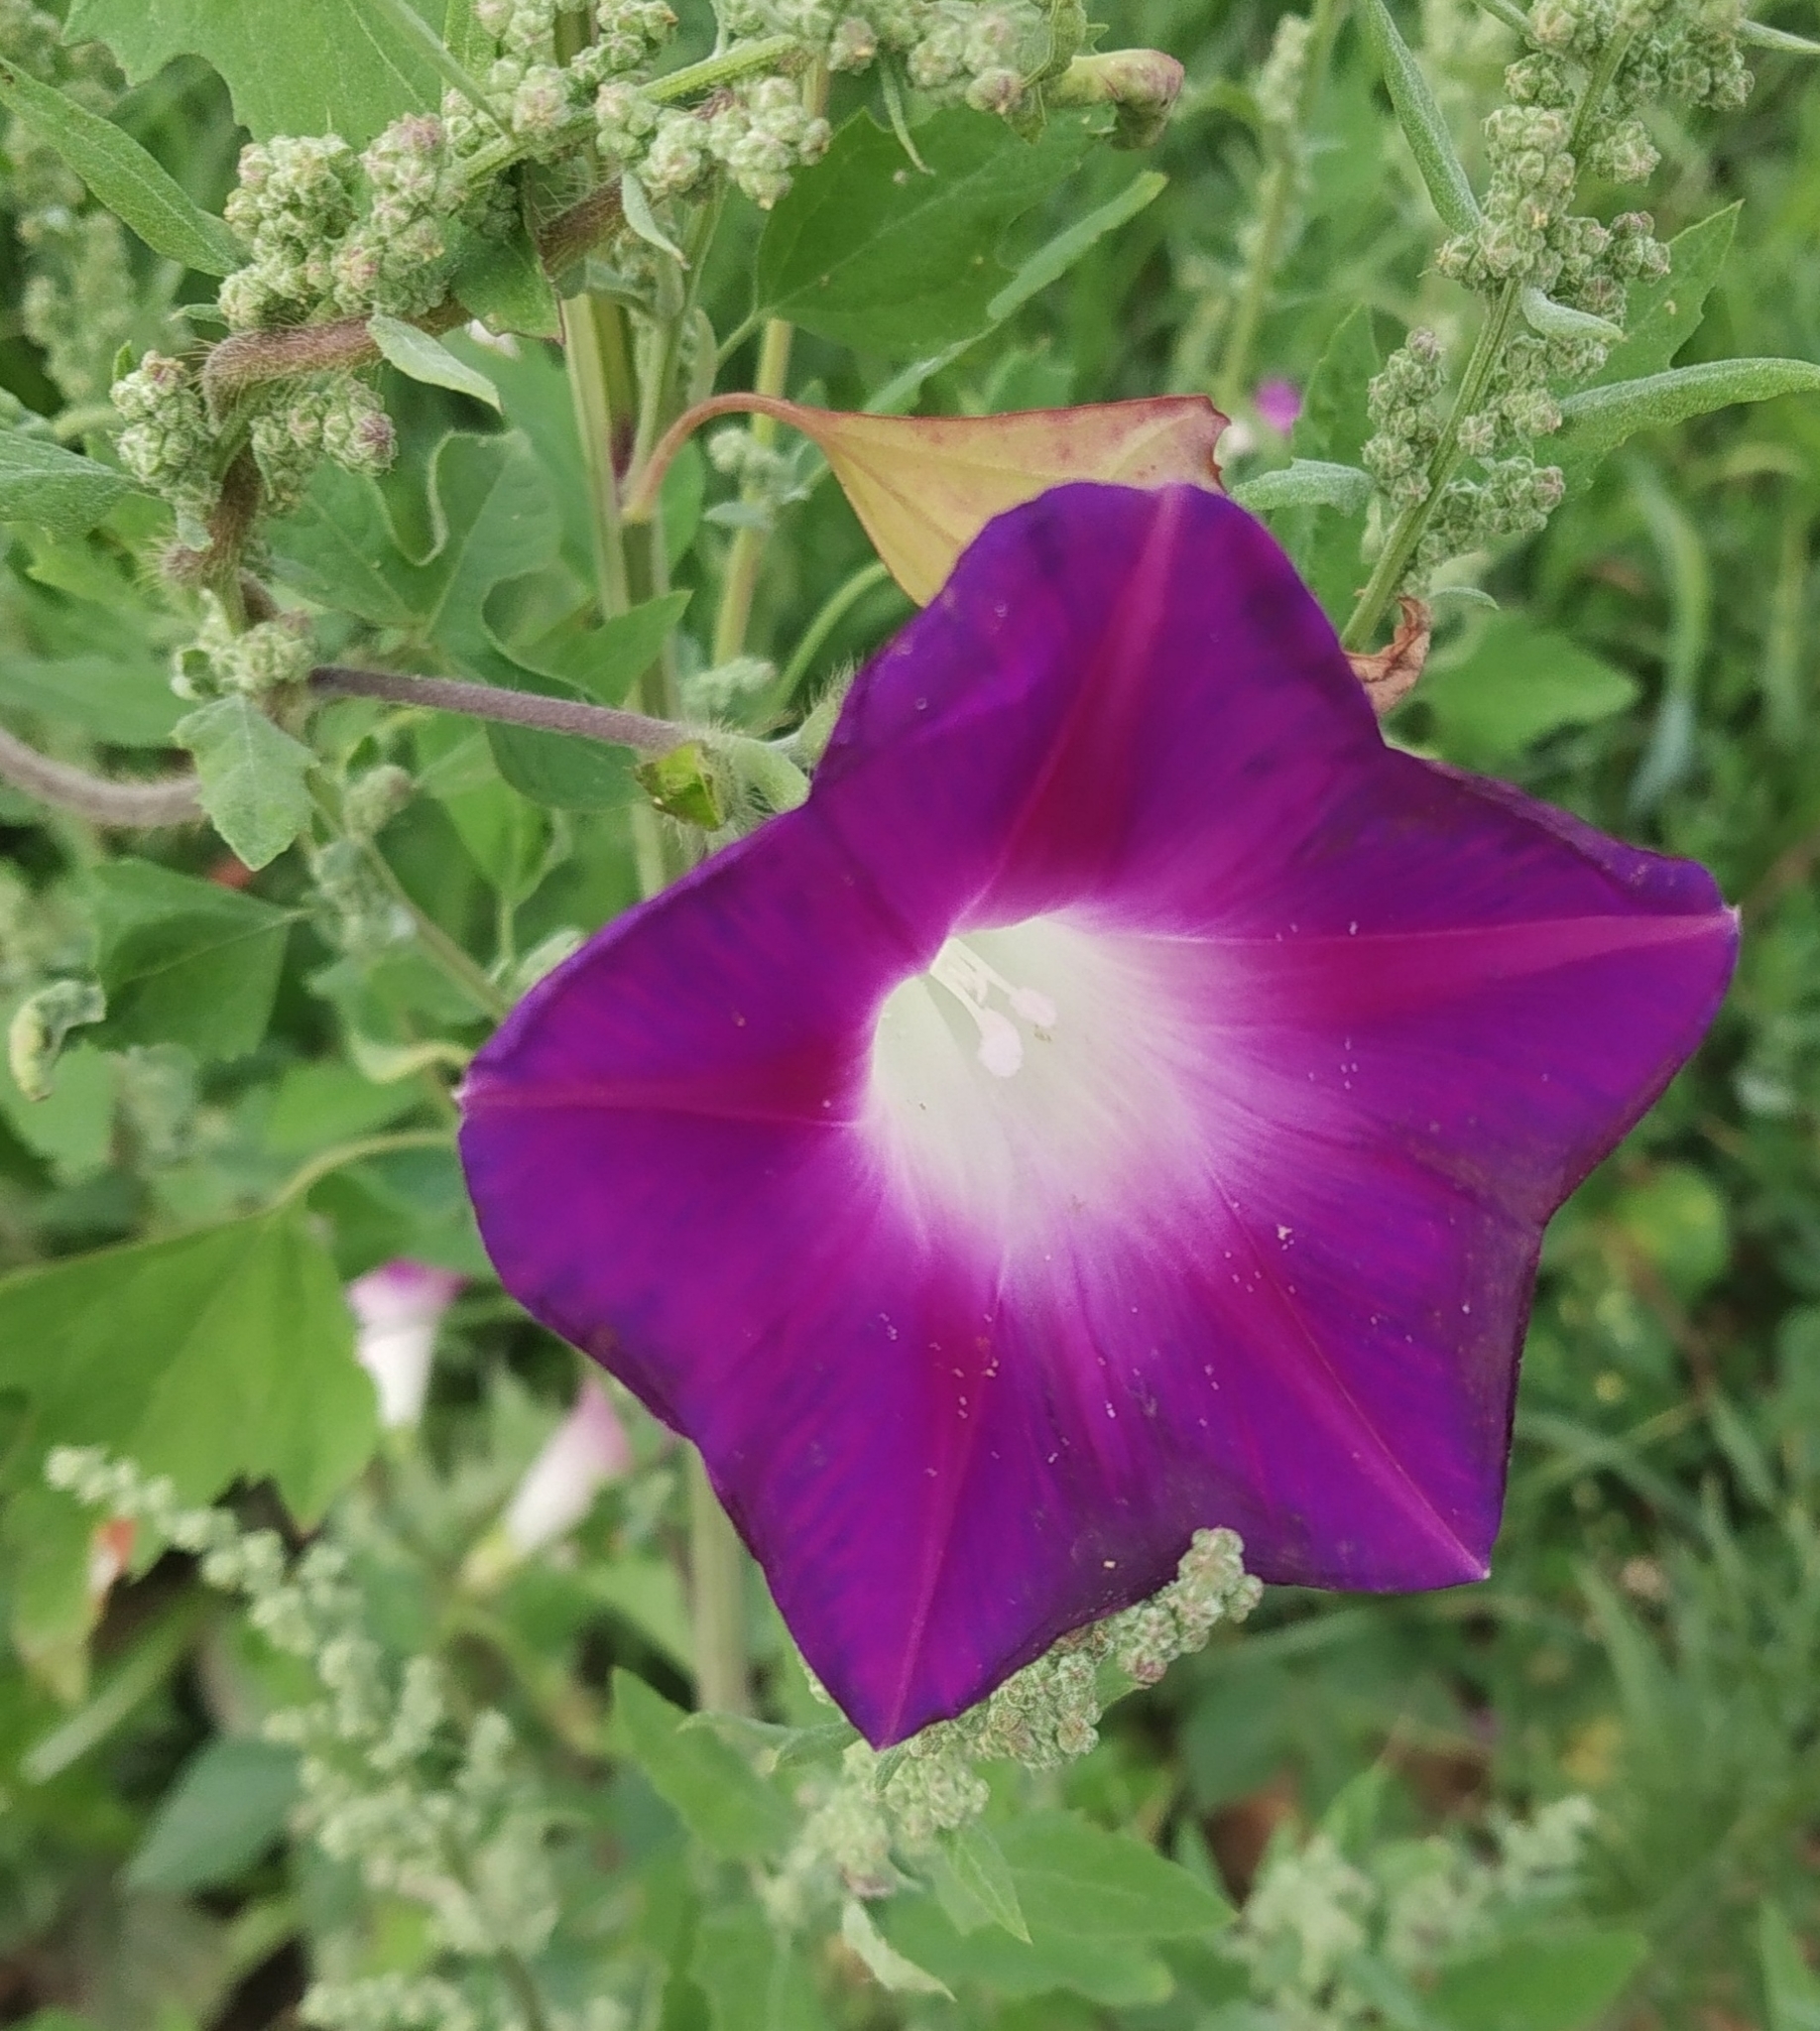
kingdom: Plantae
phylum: Tracheophyta
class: Magnoliopsida
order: Solanales
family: Convolvulaceae
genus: Ipomoea
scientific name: Ipomoea purpurea
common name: Common morning-glory
